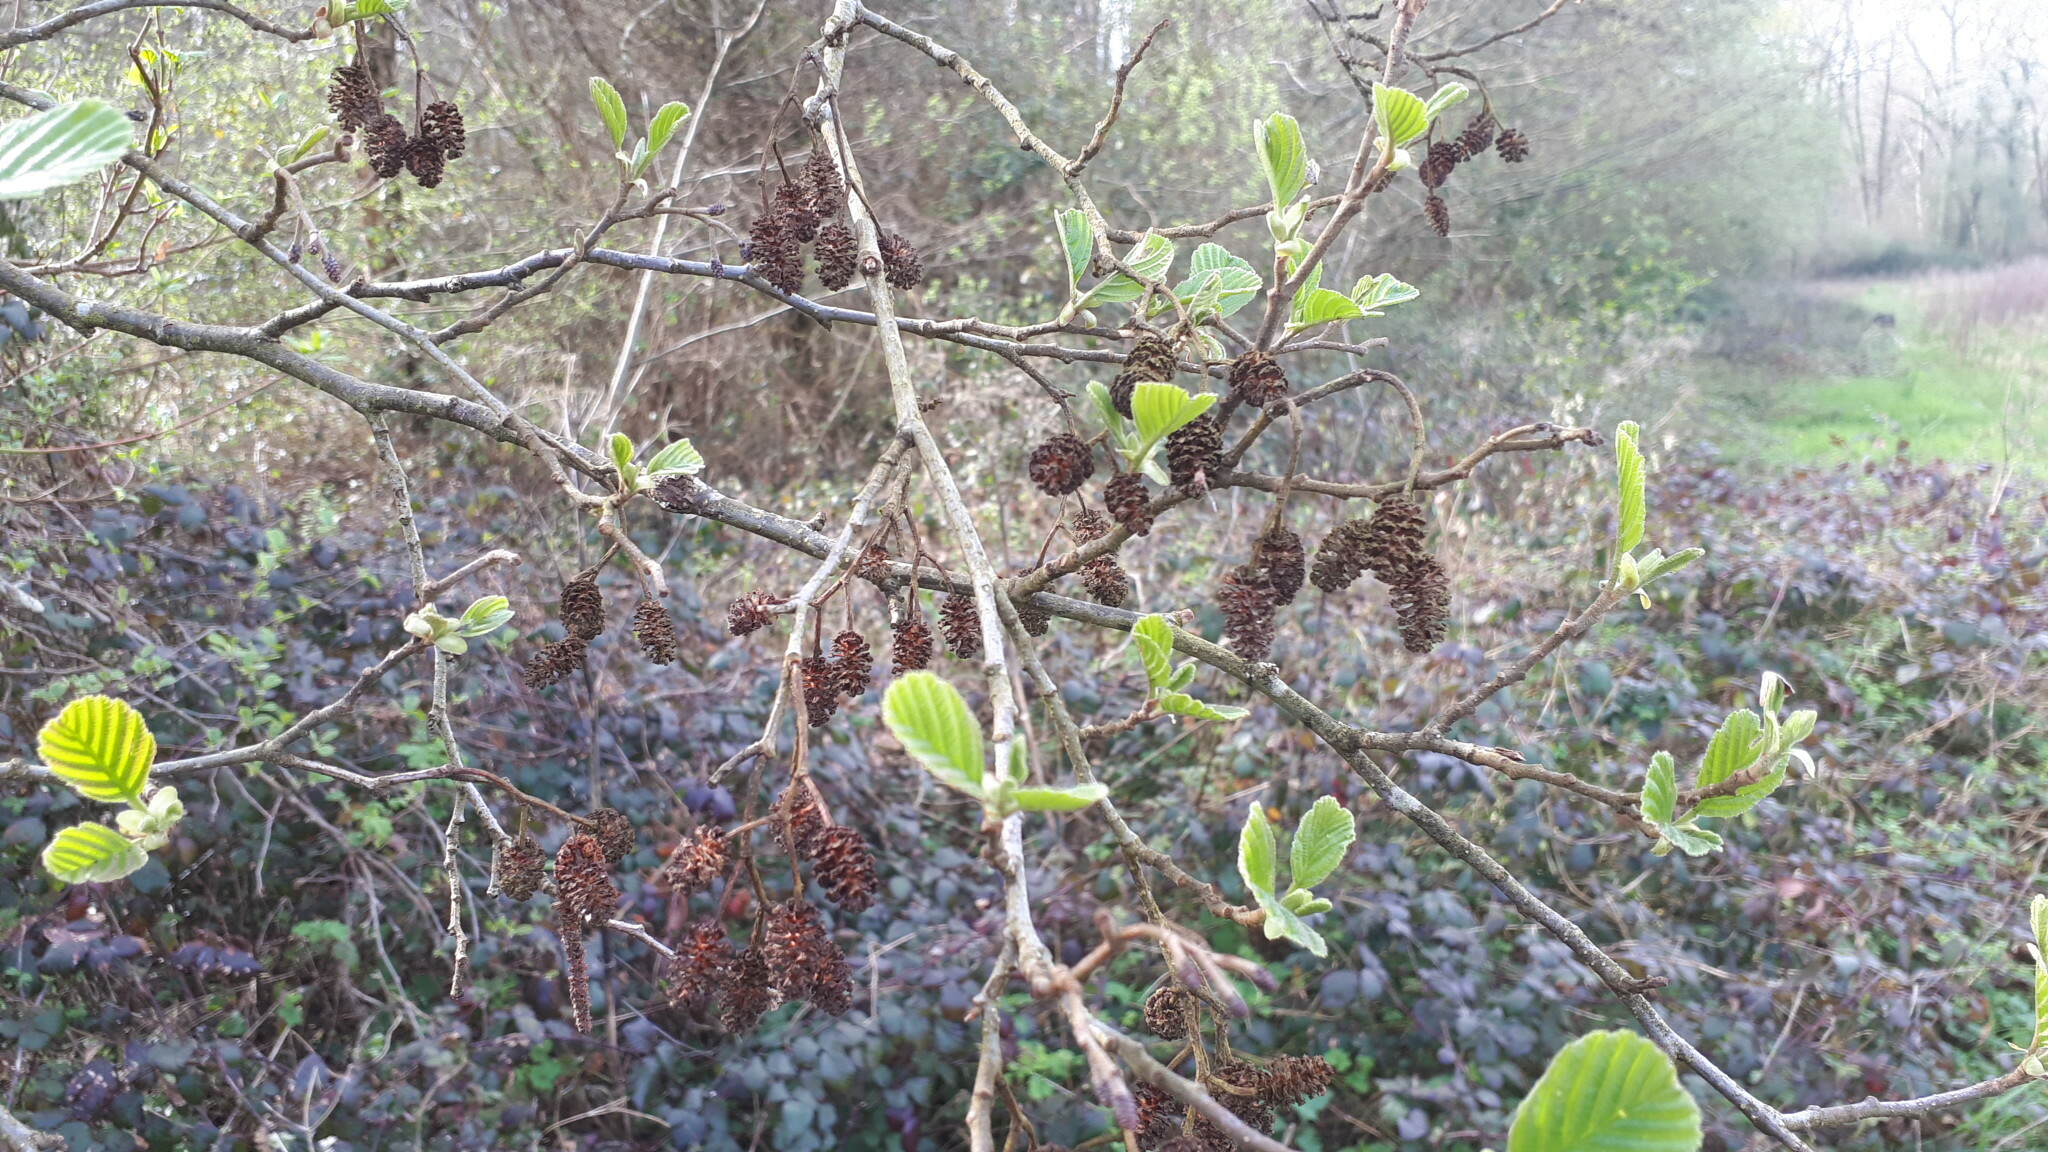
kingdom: Plantae
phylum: Tracheophyta
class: Magnoliopsida
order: Fagales
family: Betulaceae
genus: Alnus
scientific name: Alnus glutinosa
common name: Black alder
